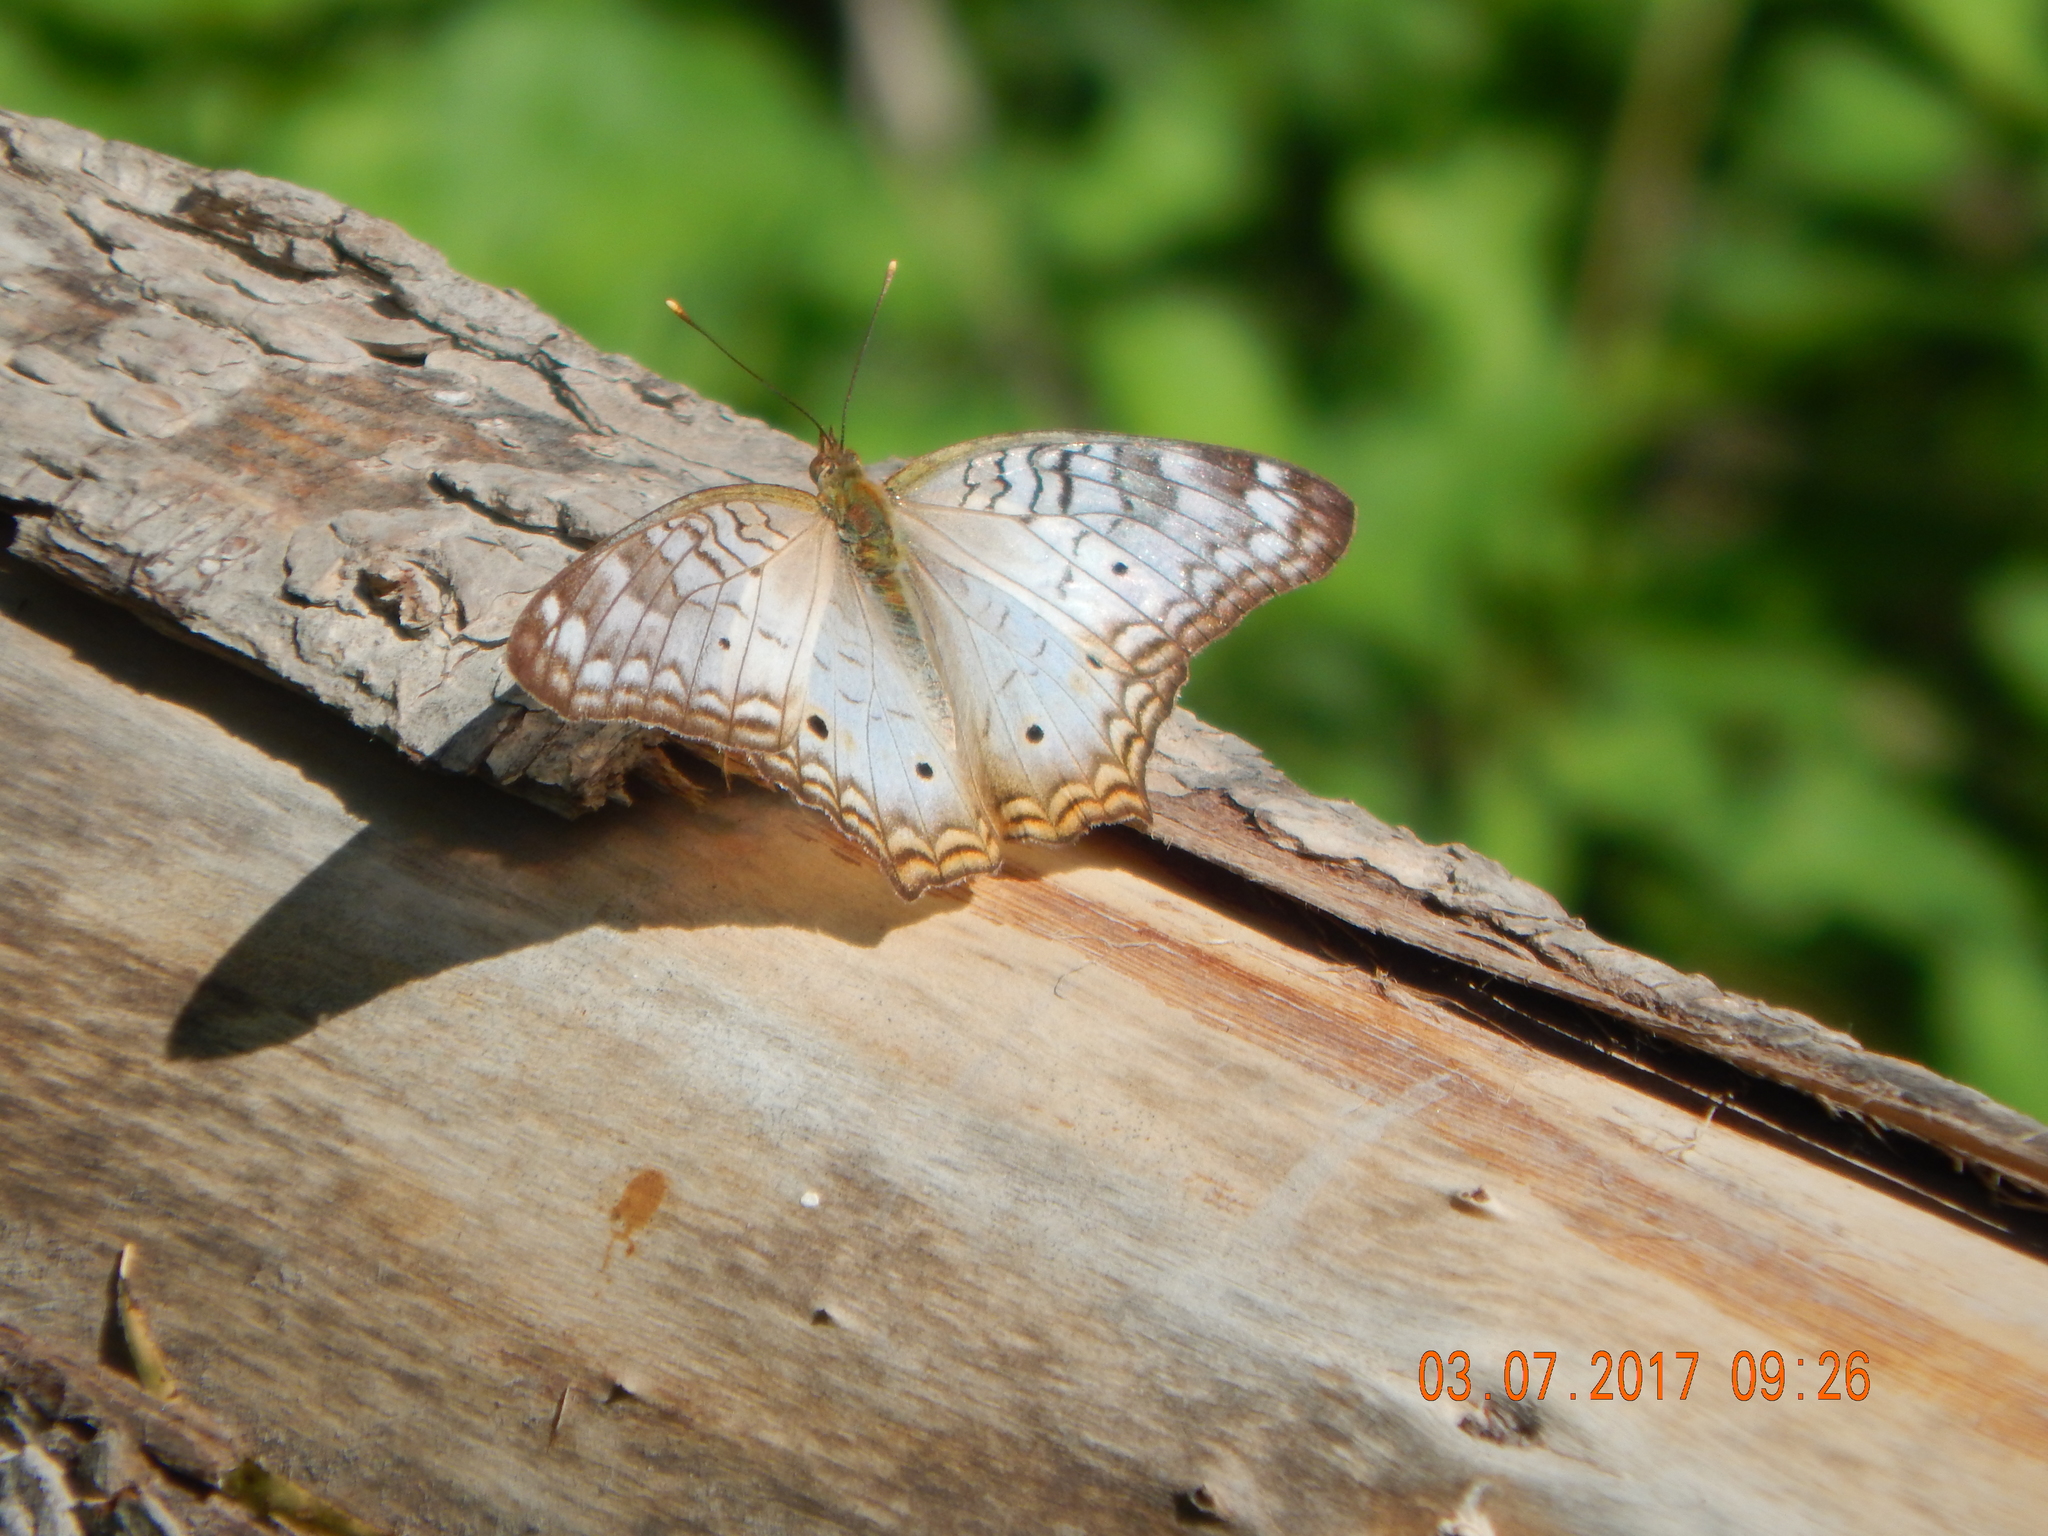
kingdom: Animalia
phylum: Arthropoda
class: Insecta
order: Lepidoptera
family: Nymphalidae
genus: Anartia
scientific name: Anartia jatrophae
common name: White peacock
